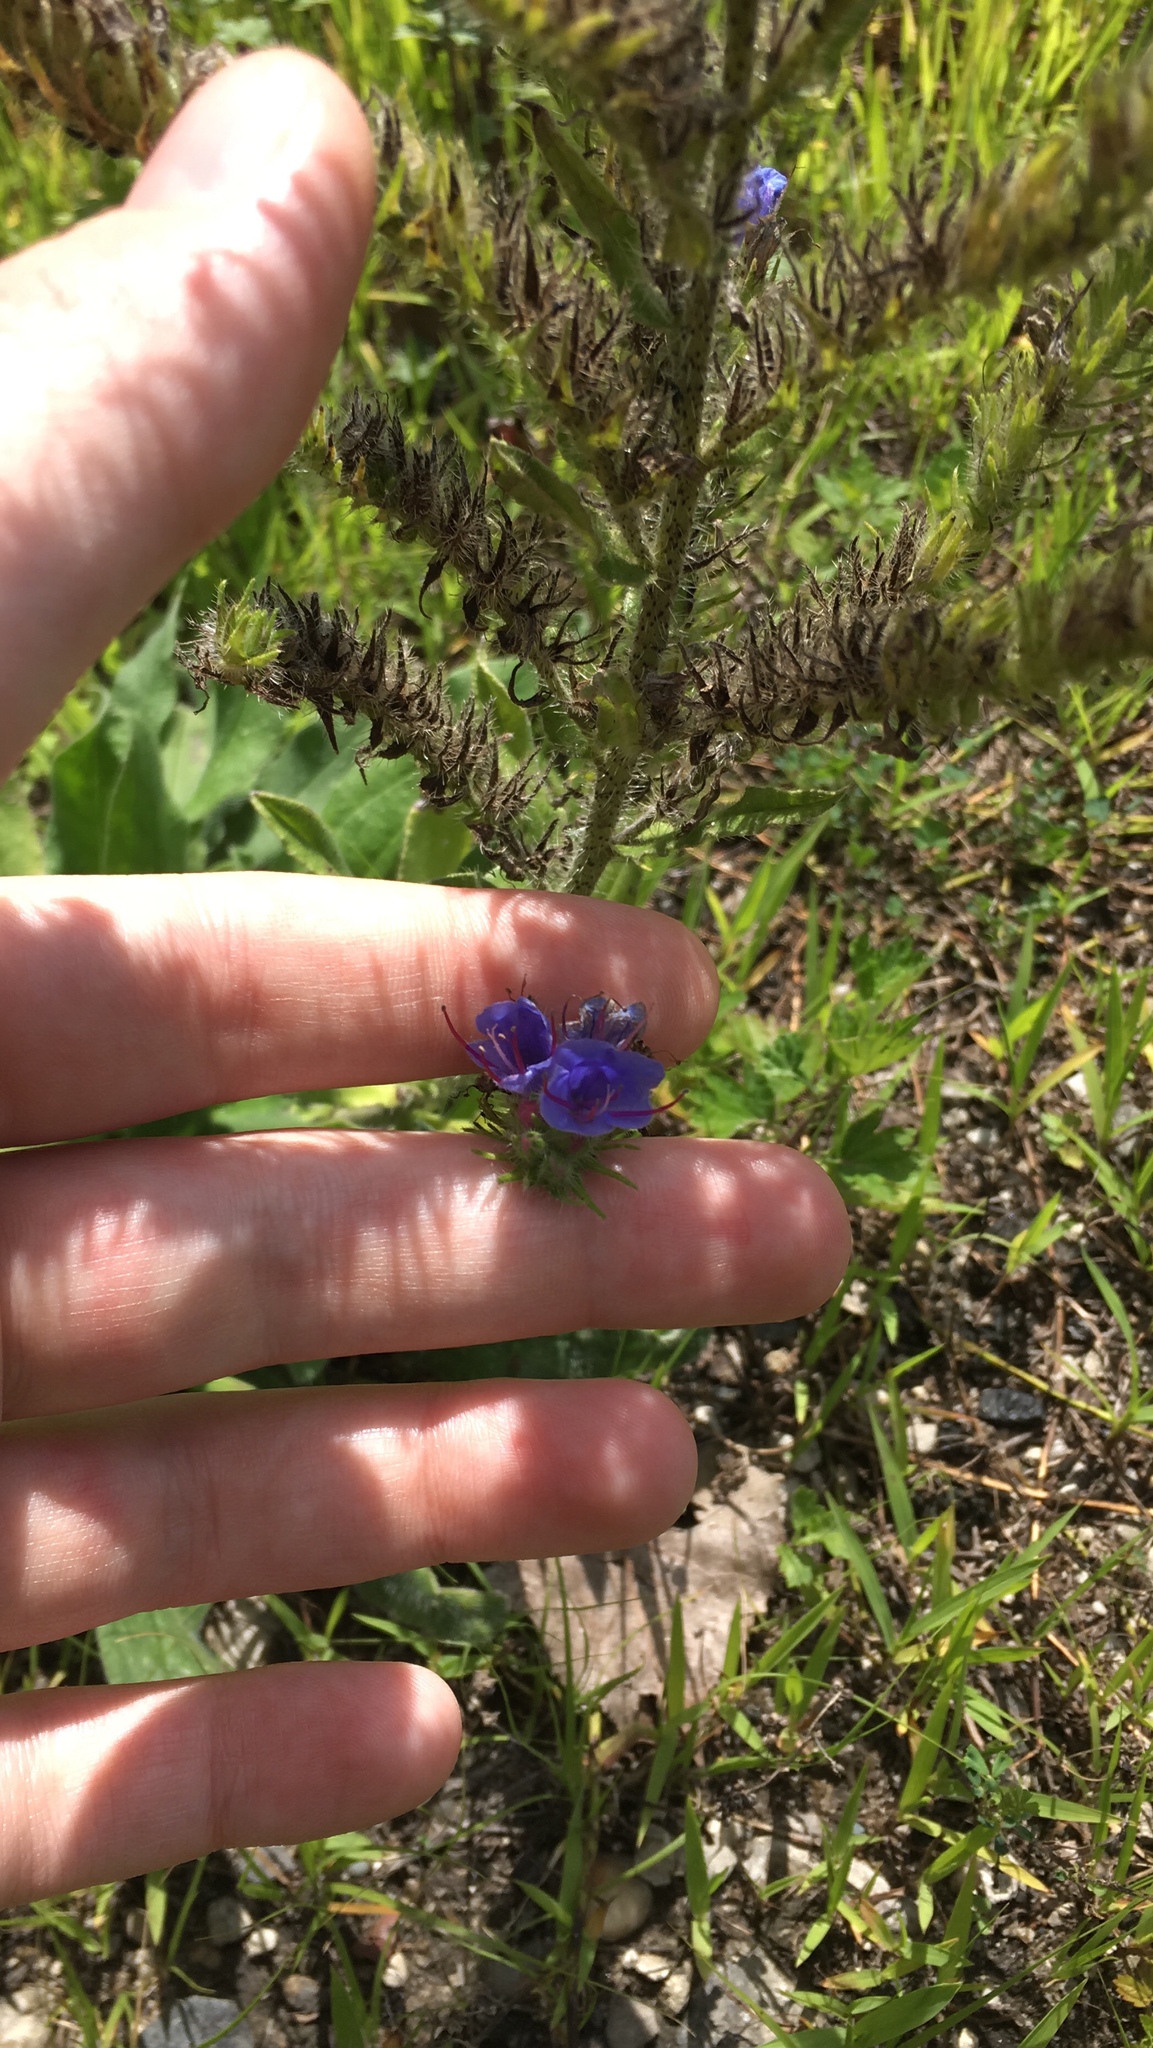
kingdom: Plantae
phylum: Tracheophyta
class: Magnoliopsida
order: Boraginales
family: Boraginaceae
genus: Echium
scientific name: Echium vulgare
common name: Common viper's bugloss
